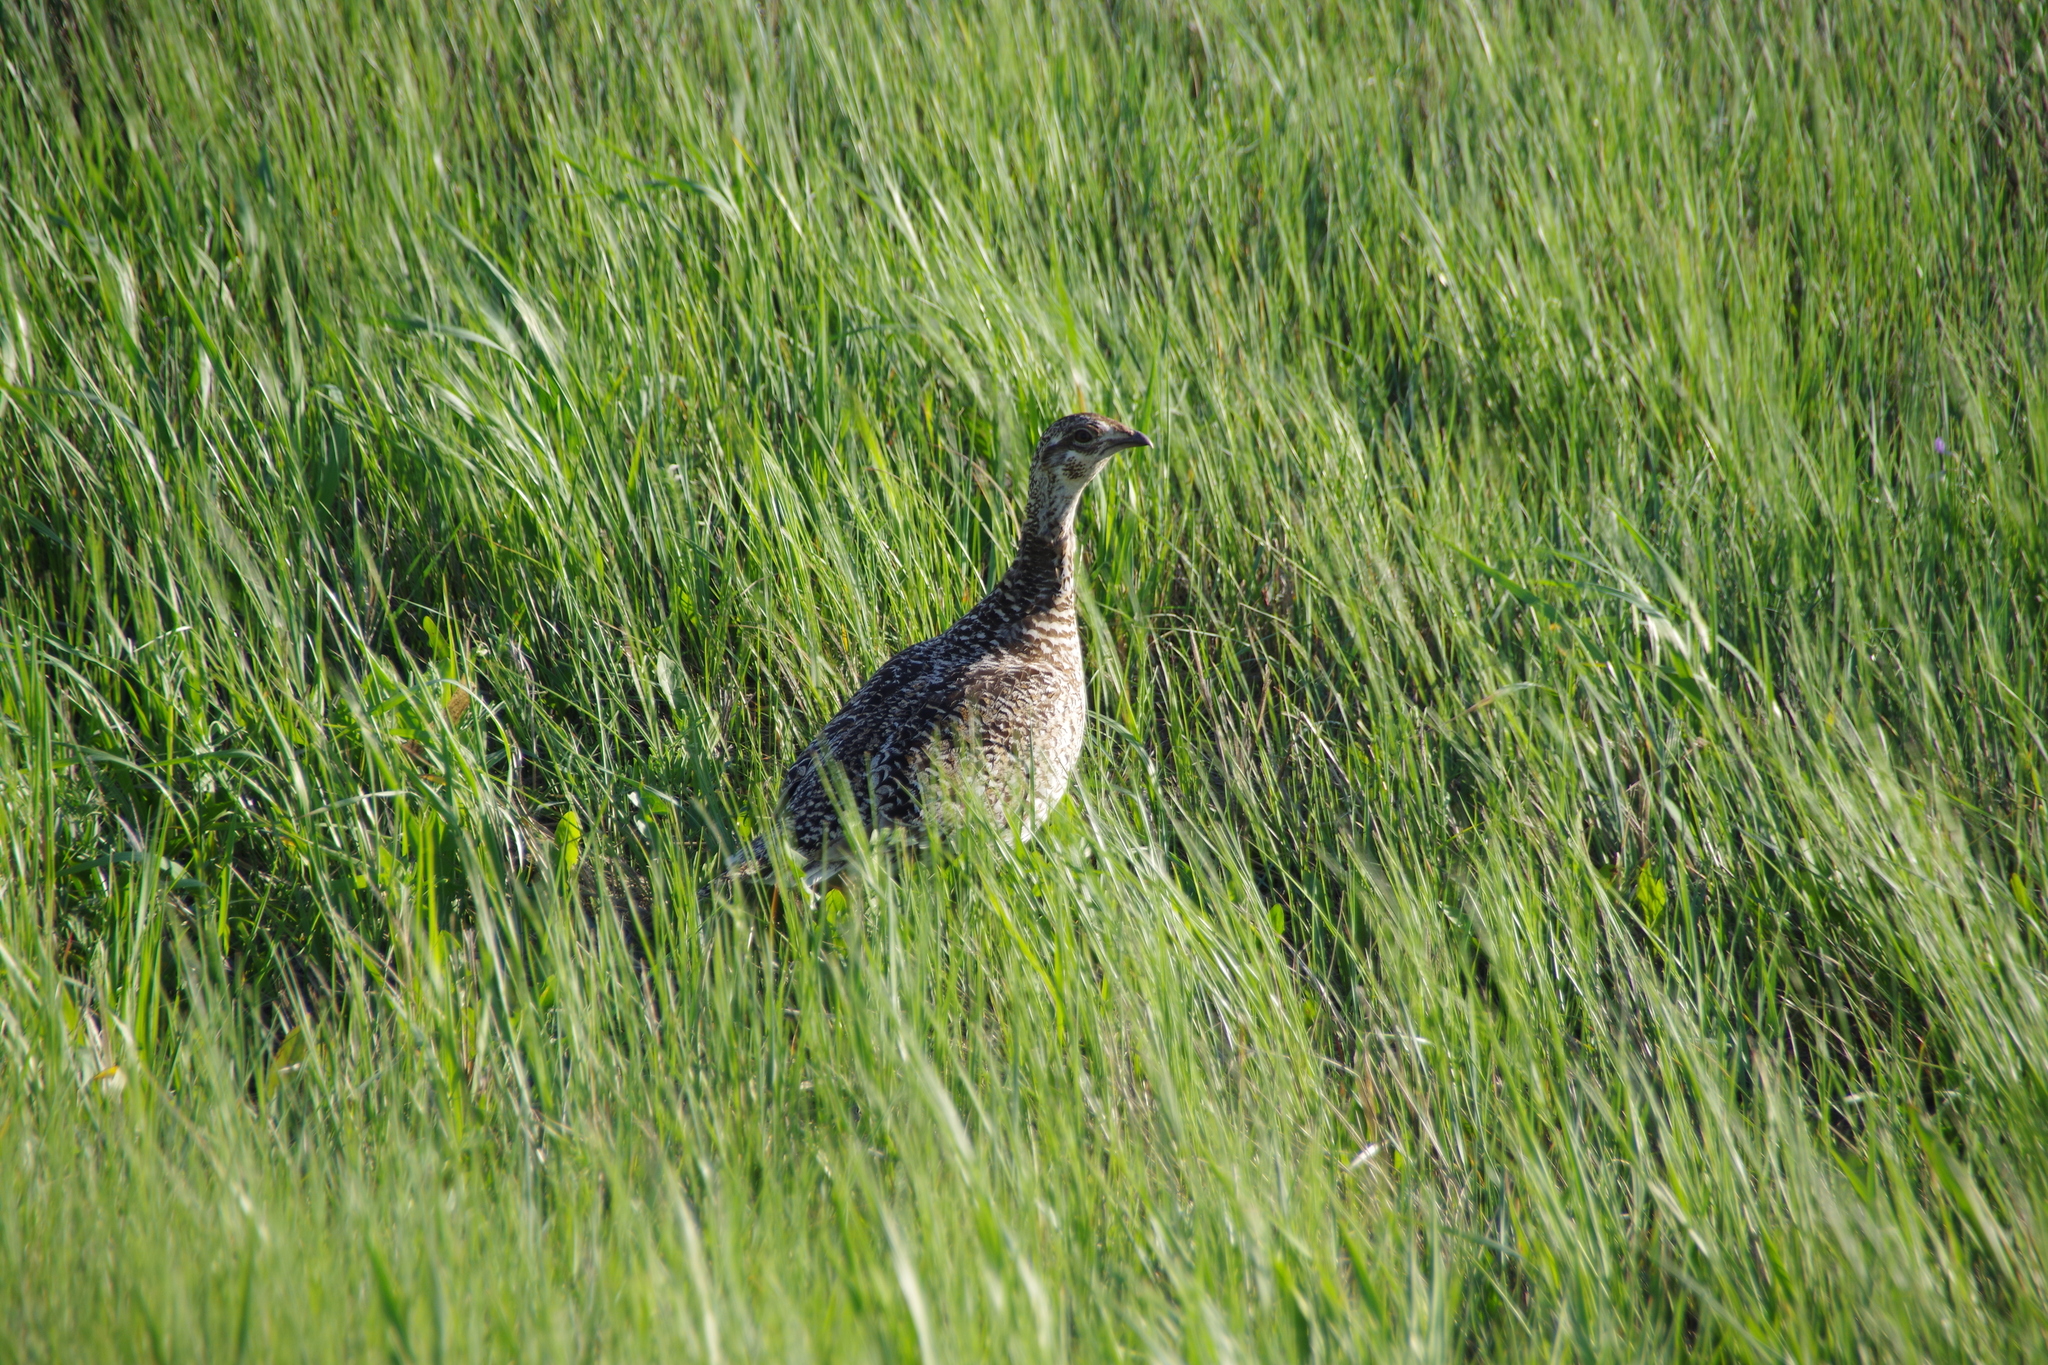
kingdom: Animalia
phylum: Chordata
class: Aves
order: Galliformes
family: Phasianidae
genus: Tympanuchus
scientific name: Tympanuchus phasianellus
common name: Sharp-tailed grouse
